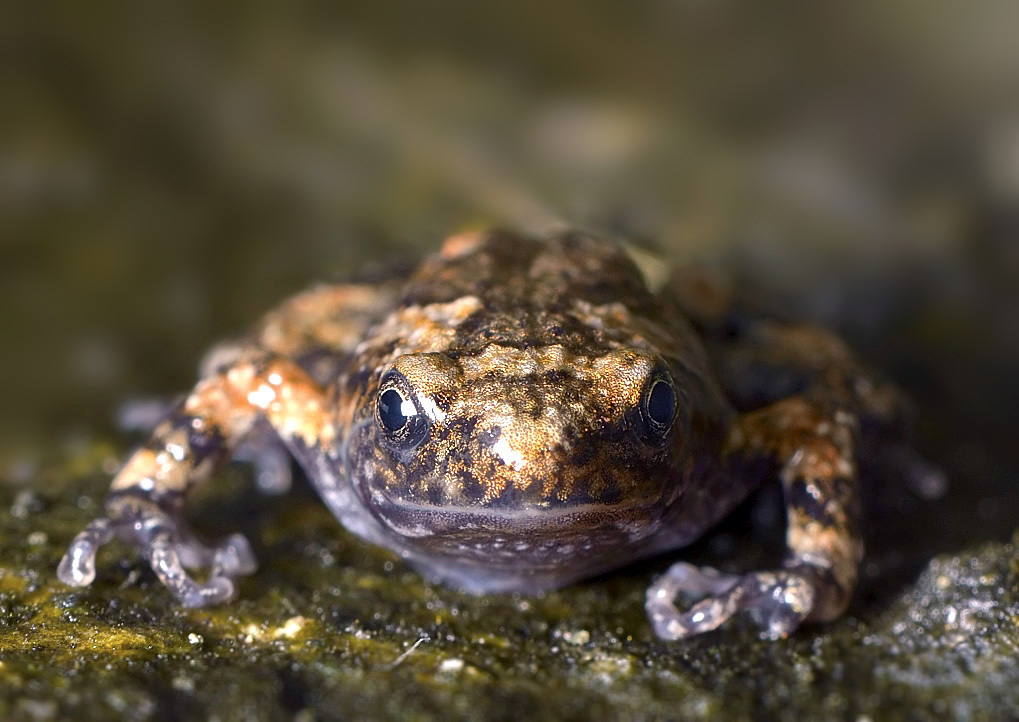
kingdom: Animalia
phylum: Chordata
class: Amphibia
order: Anura
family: Microhylidae
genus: Uperodon
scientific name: Uperodon taprobanicus
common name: Ceylon kaloula
